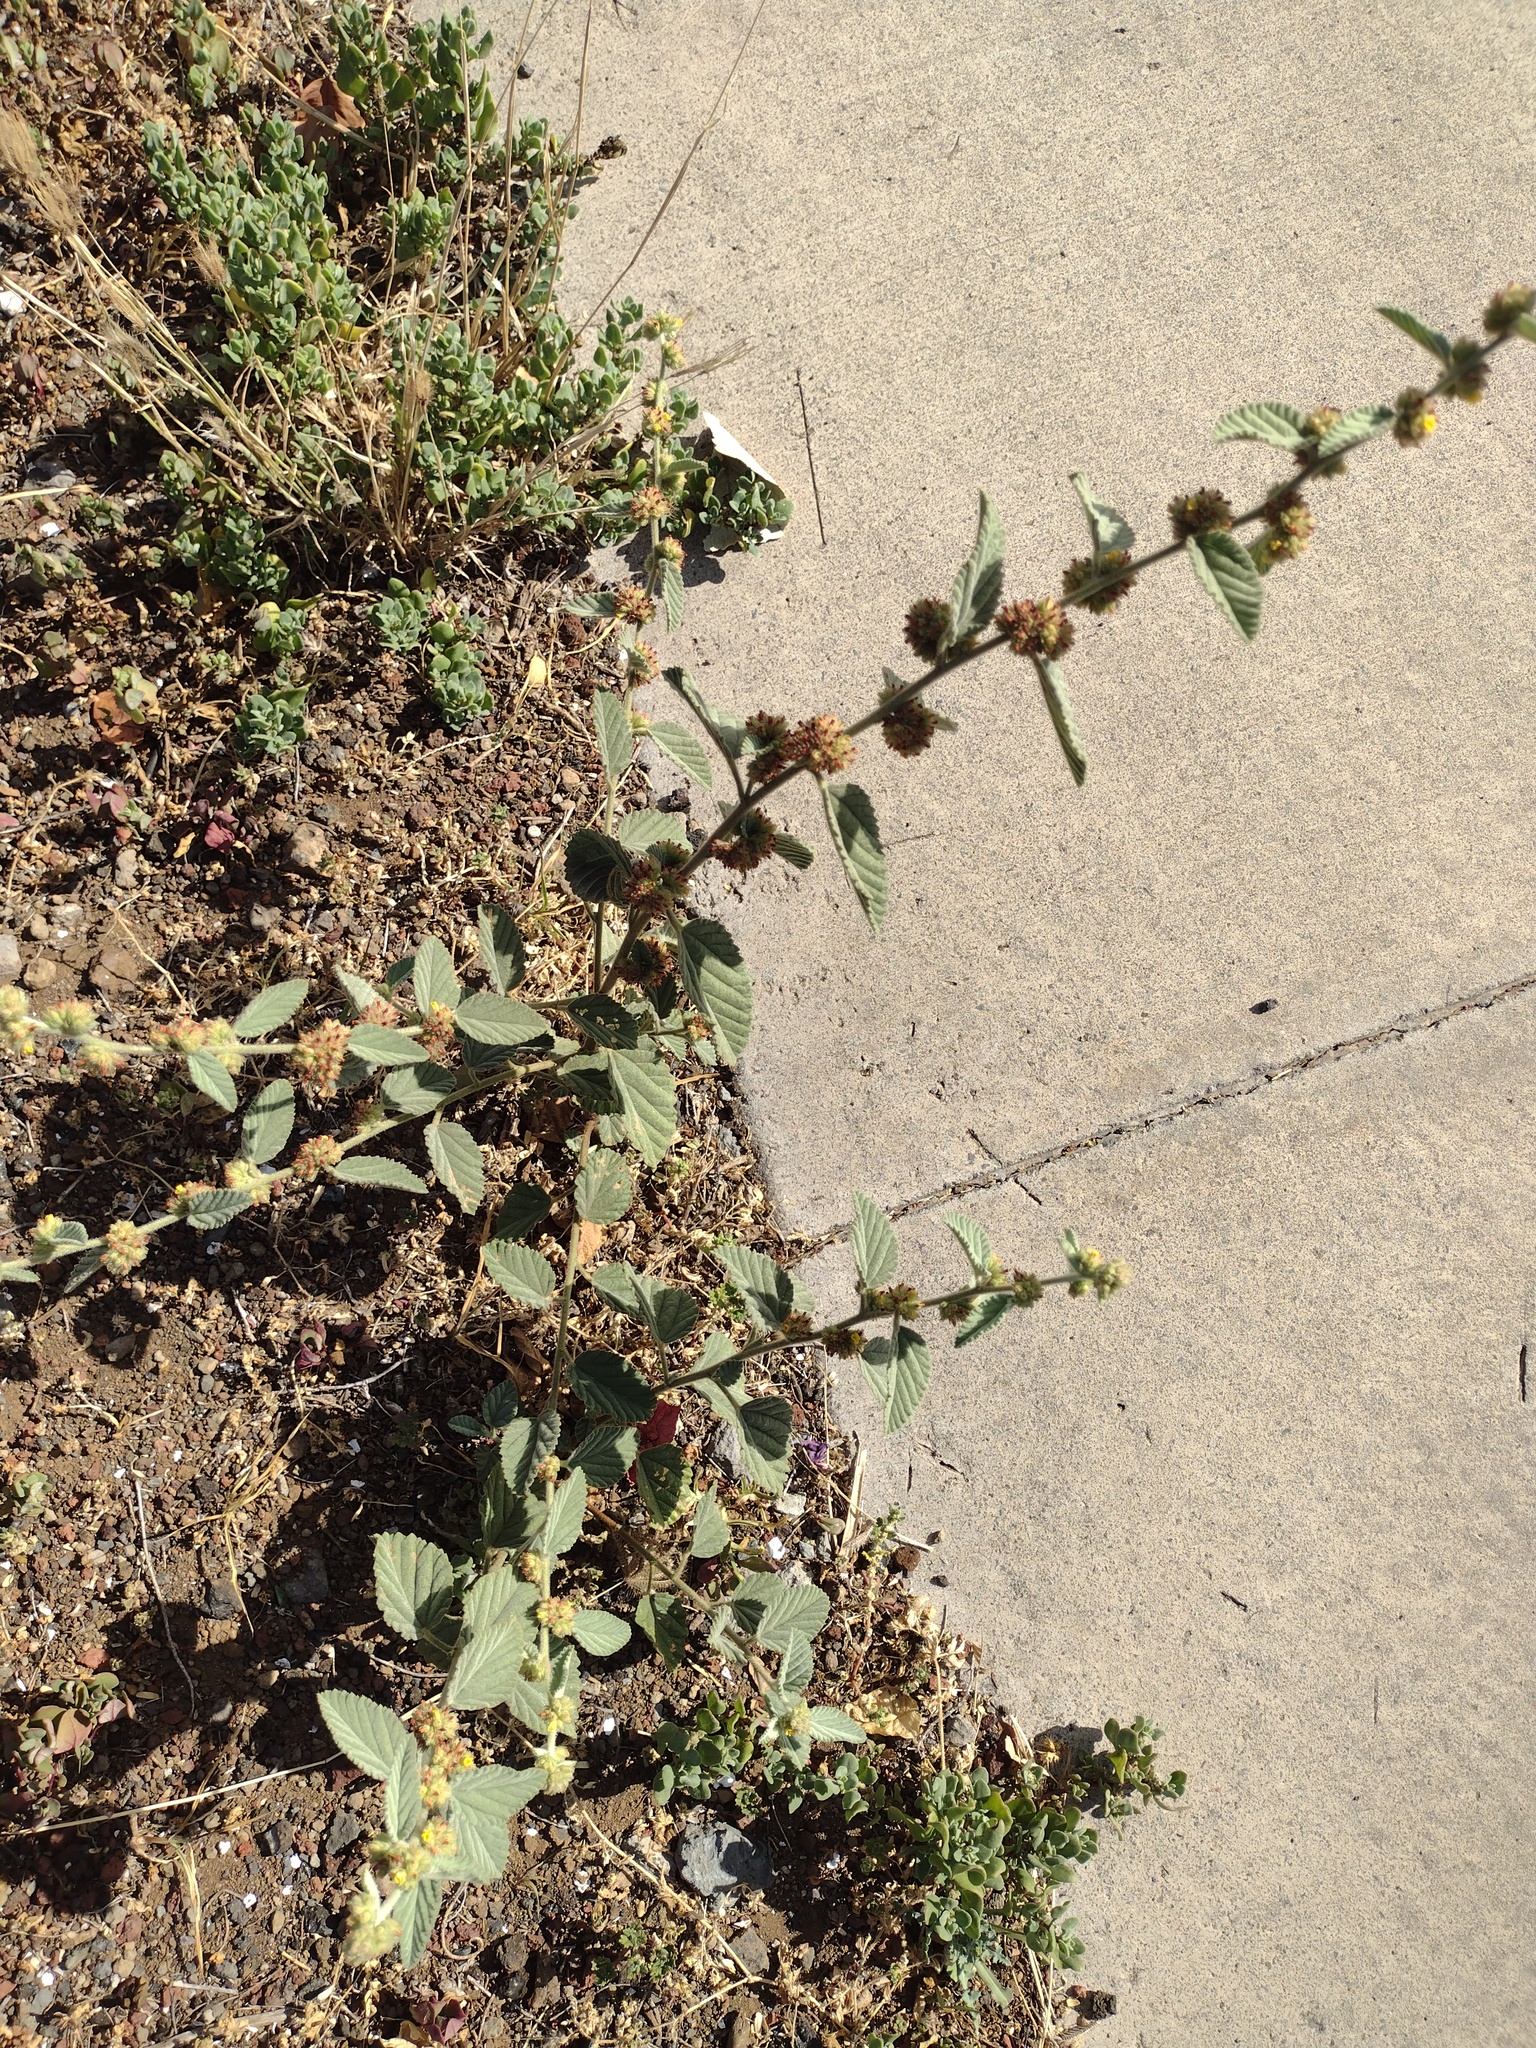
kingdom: Plantae
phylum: Tracheophyta
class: Magnoliopsida
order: Malvales
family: Malvaceae
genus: Waltheria
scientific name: Waltheria indica
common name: Leather-coat
